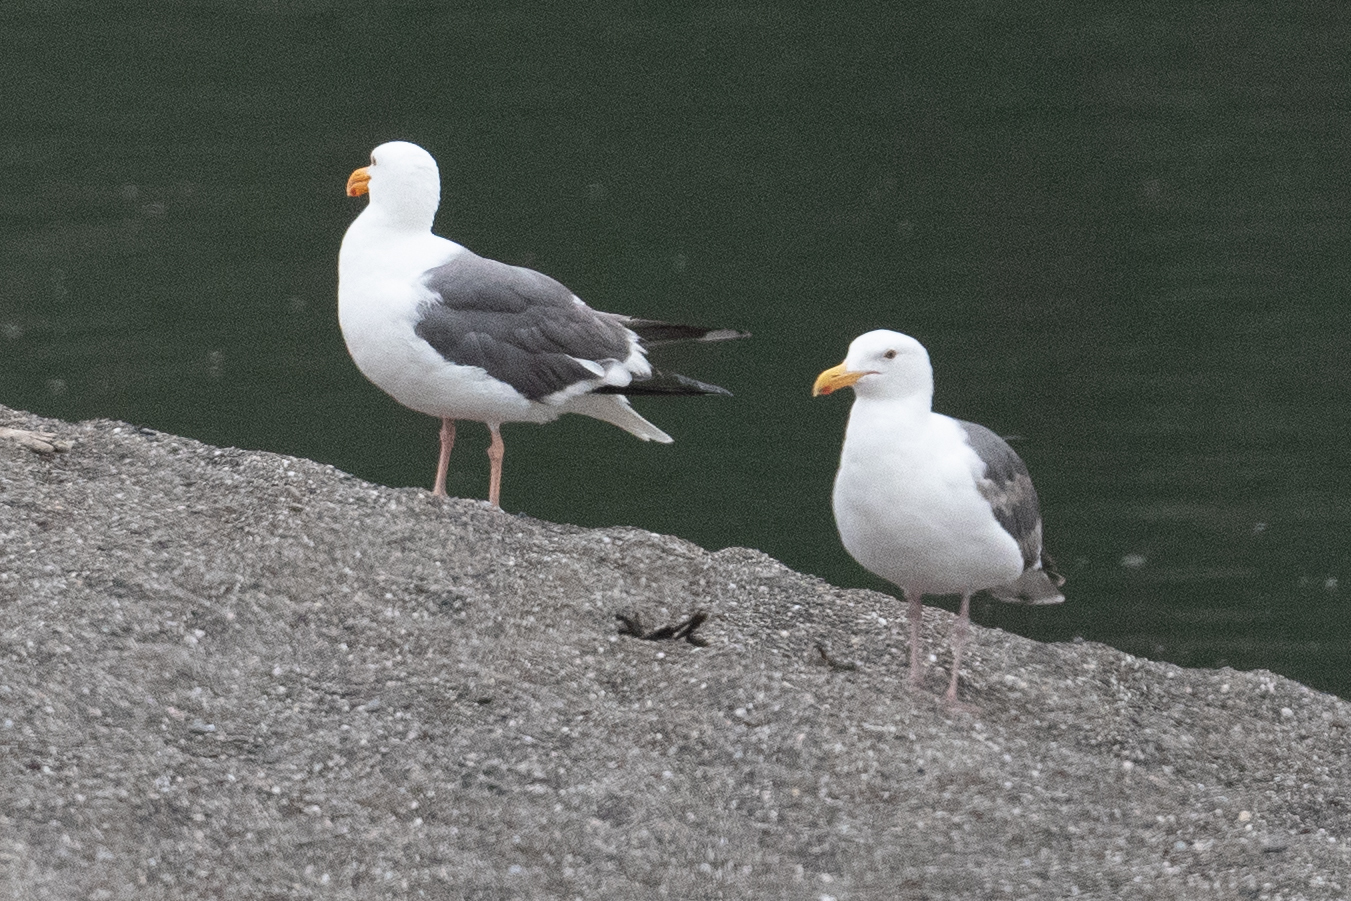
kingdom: Animalia
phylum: Chordata
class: Aves
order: Charadriiformes
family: Laridae
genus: Larus
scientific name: Larus occidentalis
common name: Western gull
